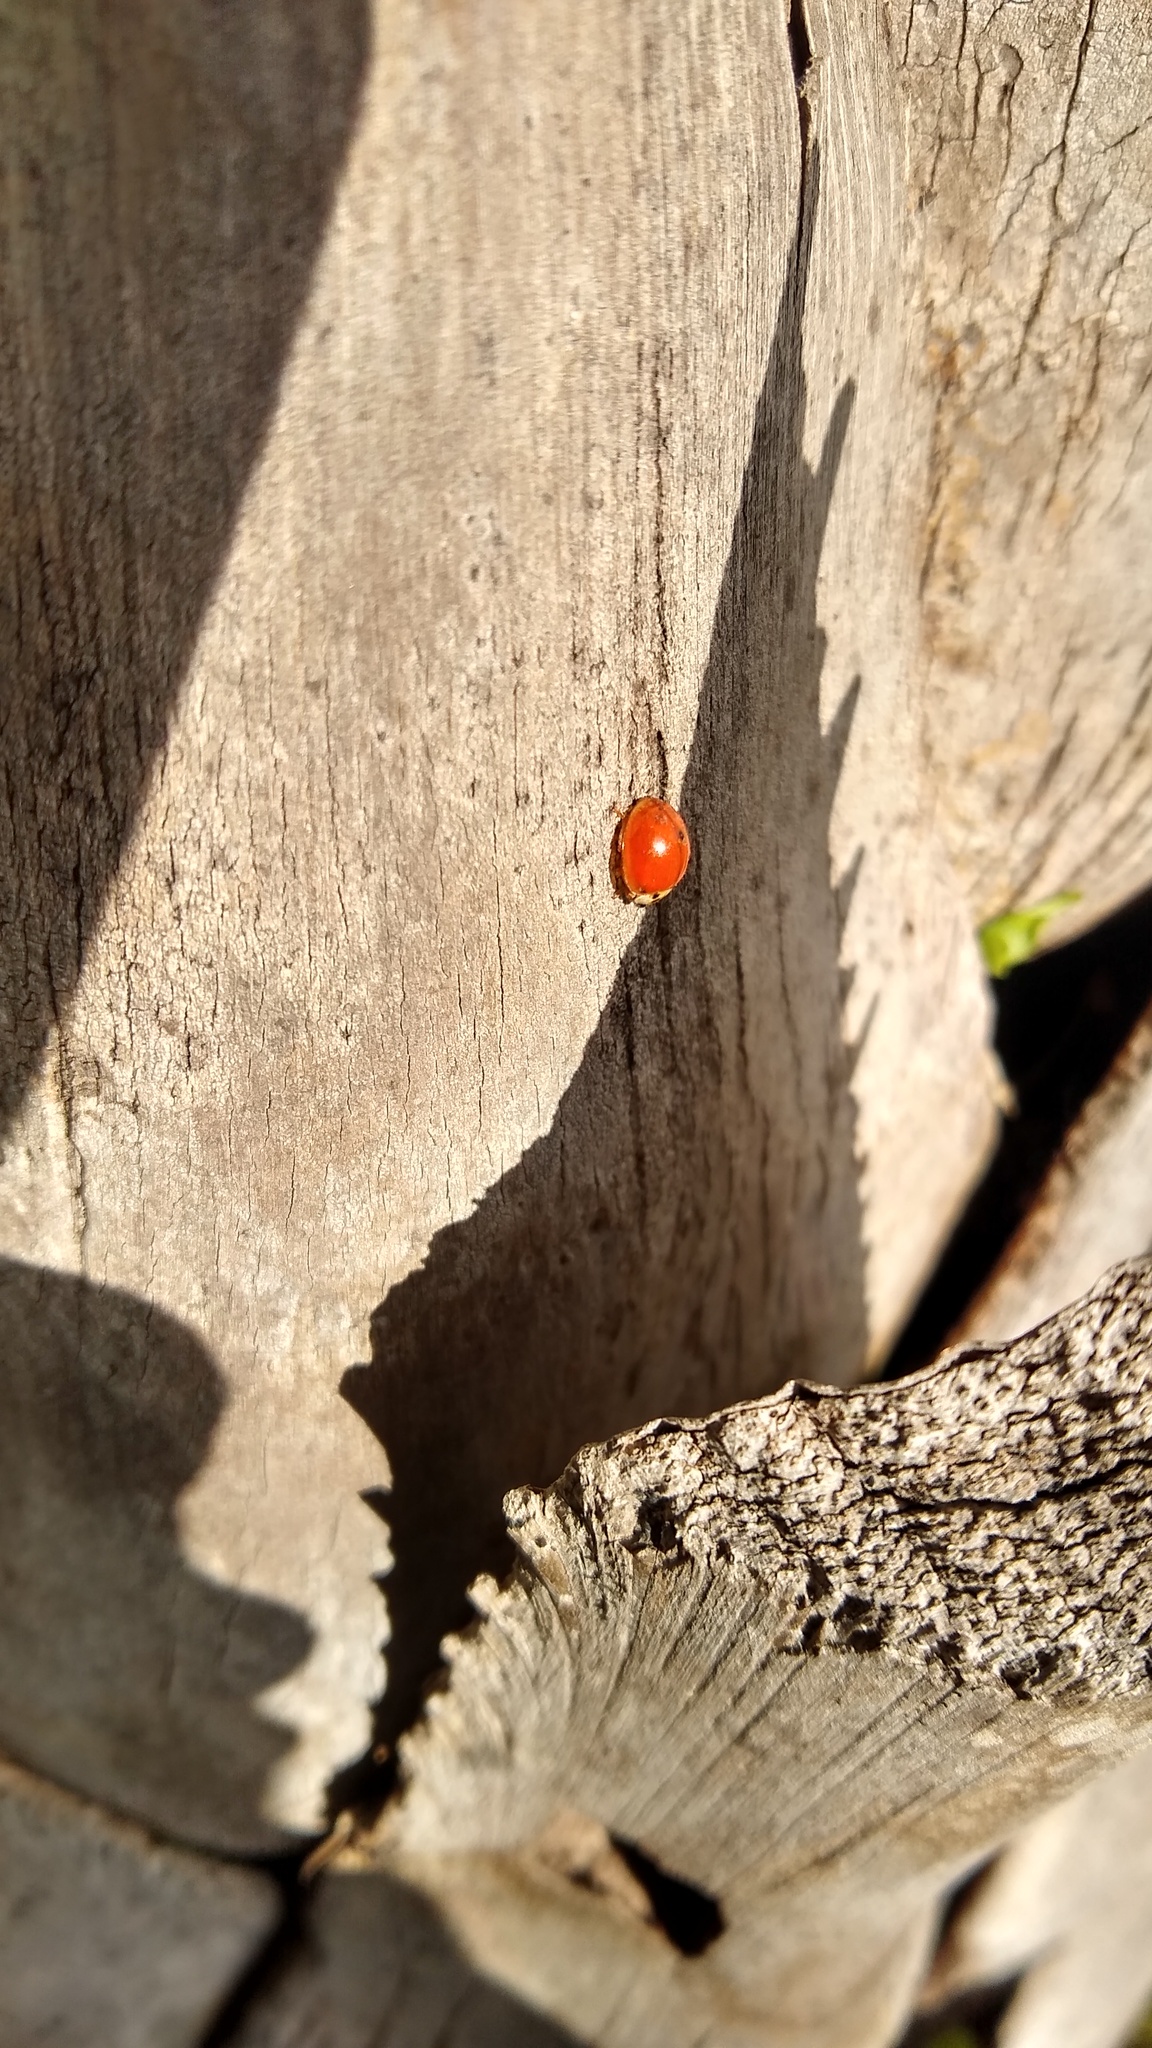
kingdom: Animalia
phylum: Arthropoda
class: Insecta
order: Coleoptera
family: Coccinellidae
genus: Harmonia
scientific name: Harmonia axyridis
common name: Harlequin ladybird
